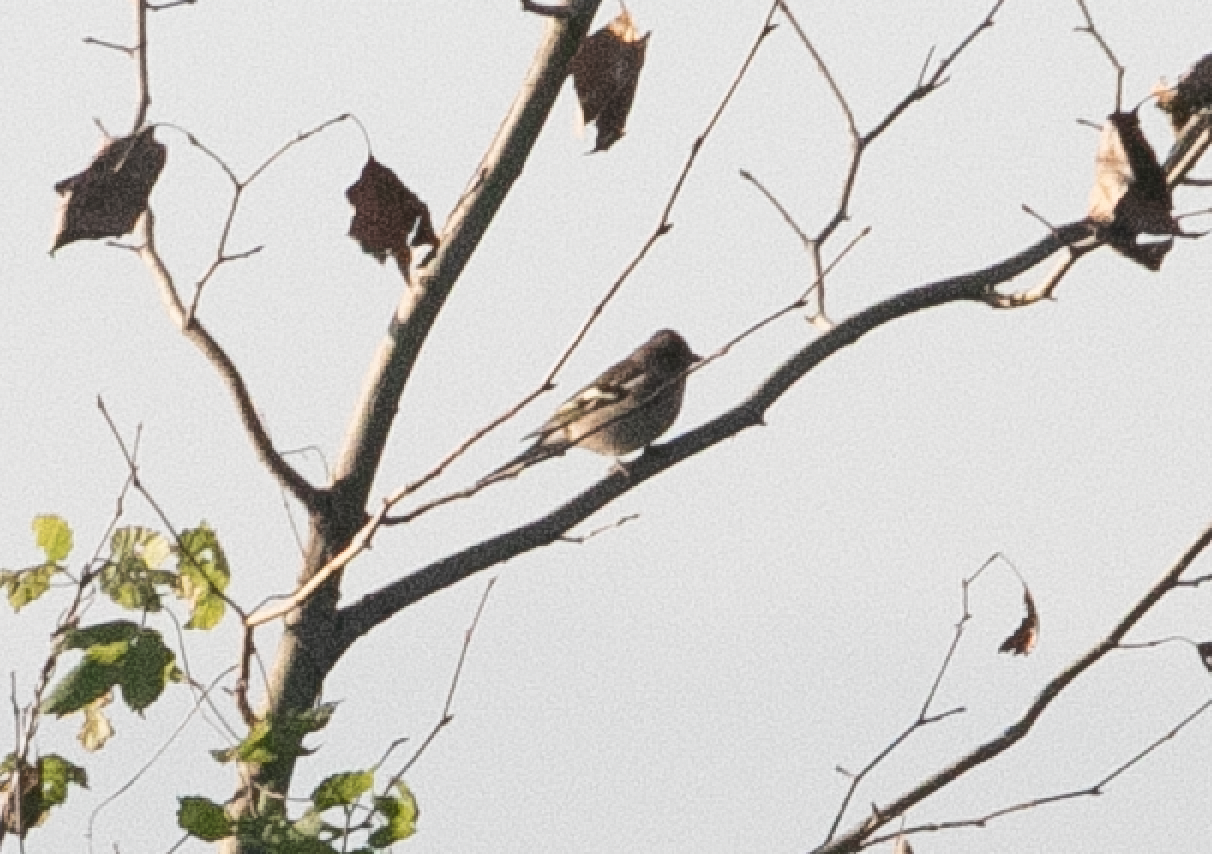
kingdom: Animalia
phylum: Chordata
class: Aves
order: Passeriformes
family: Fringillidae
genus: Fringilla
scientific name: Fringilla coelebs
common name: Common chaffinch
